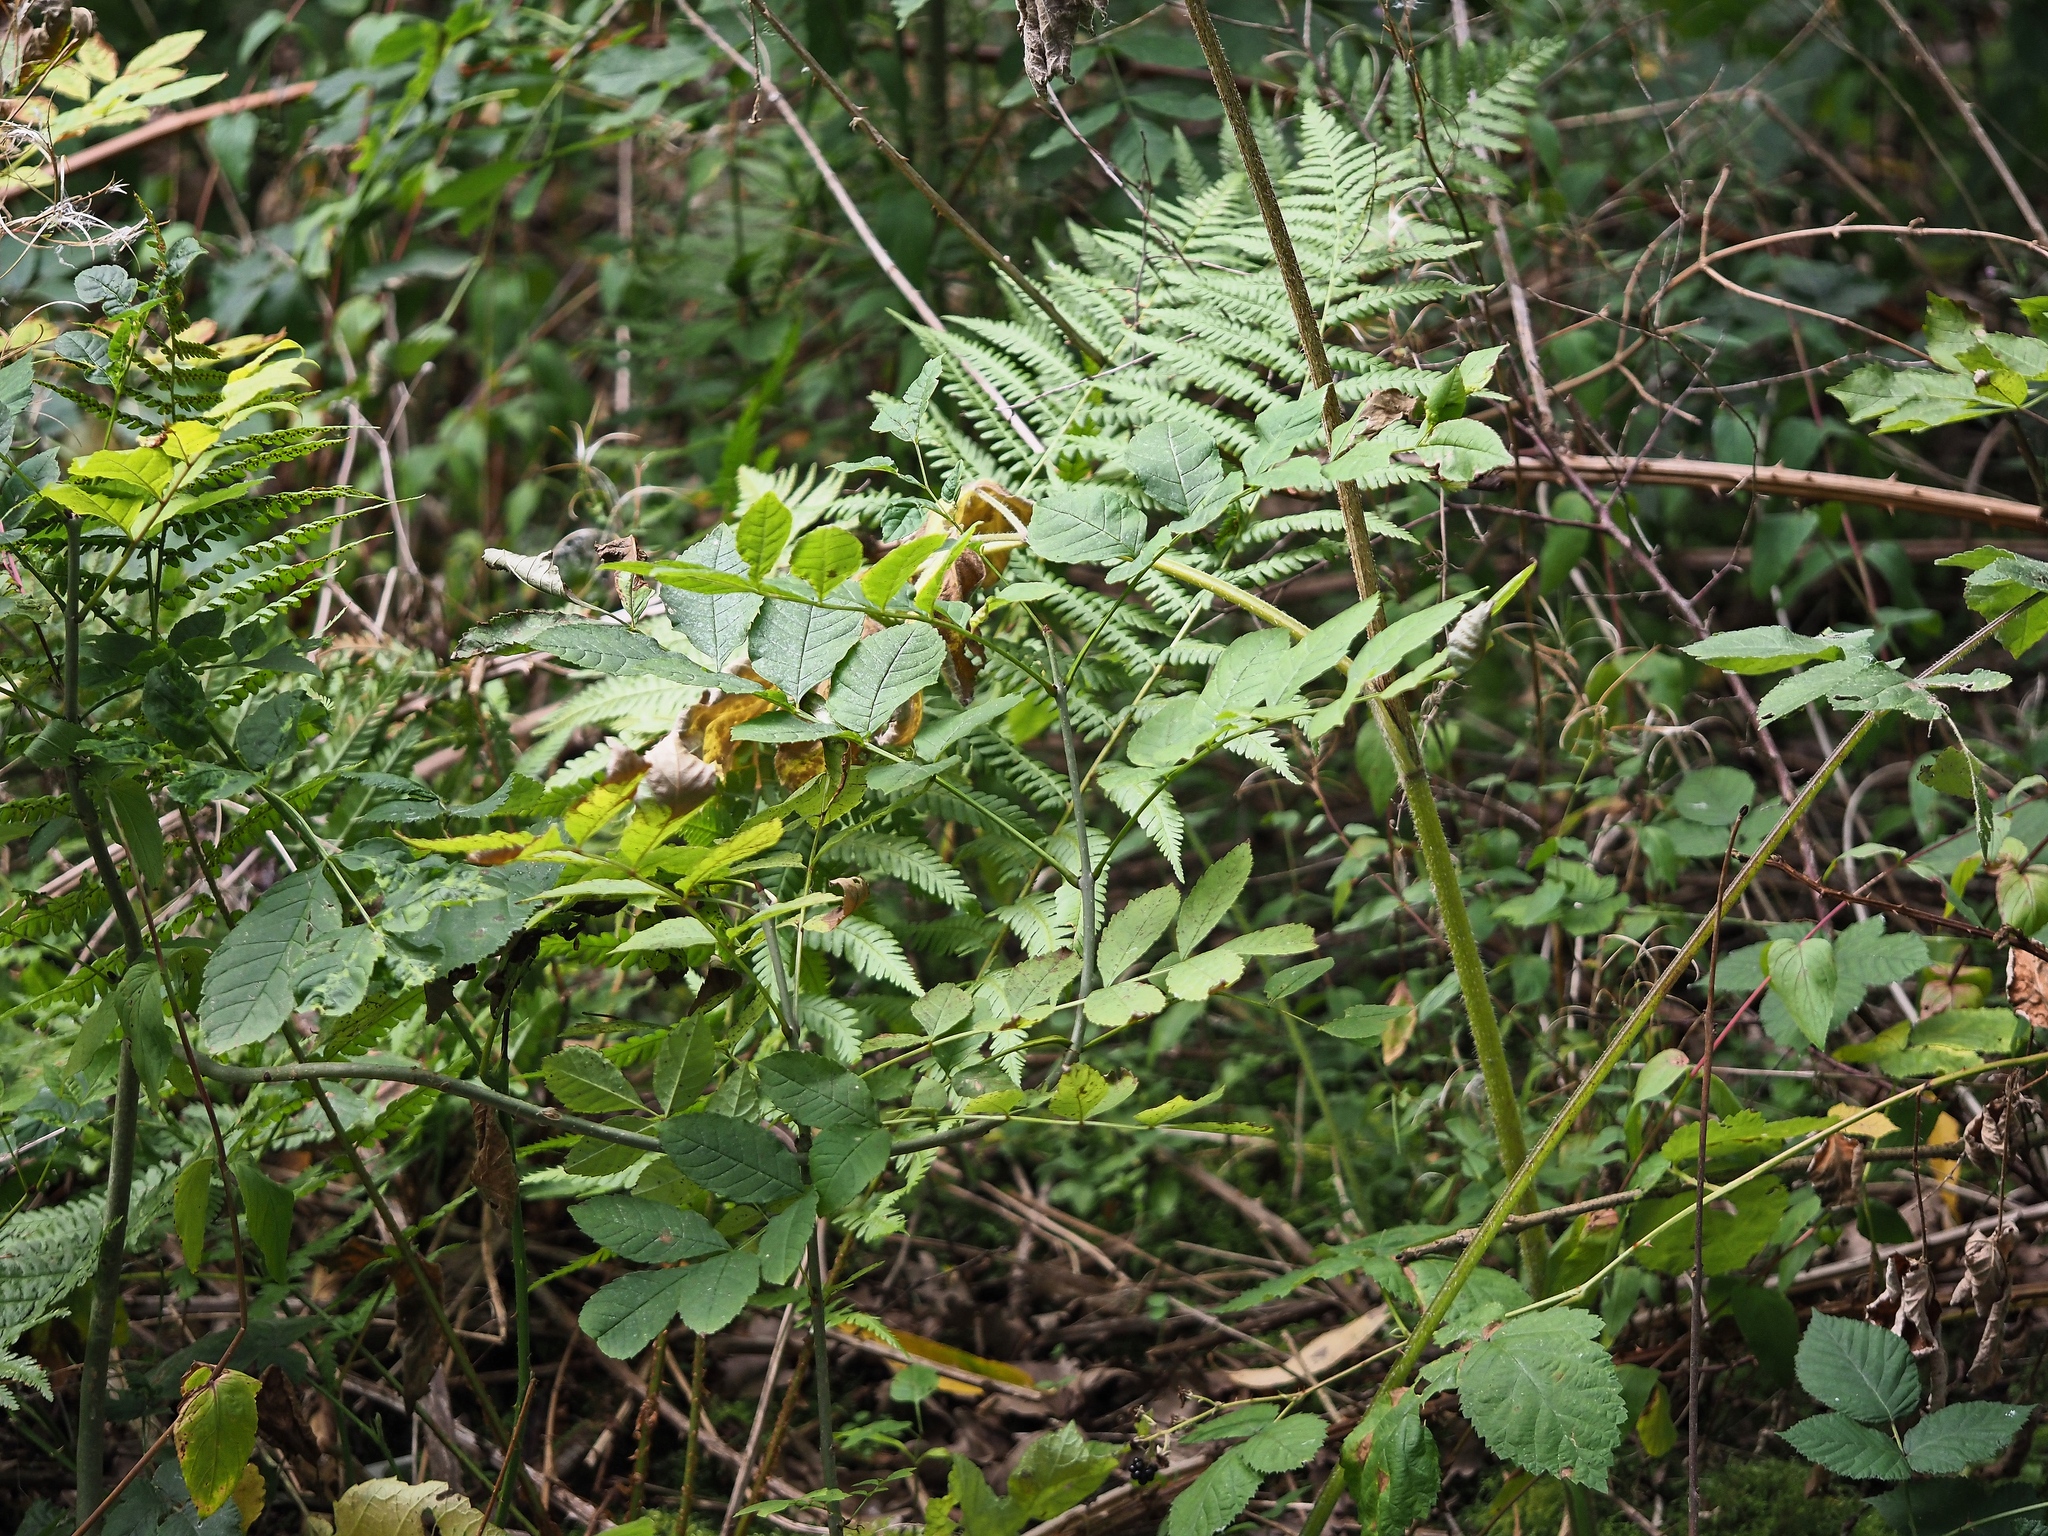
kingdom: Plantae
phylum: Tracheophyta
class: Polypodiopsida
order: Polypodiales
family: Dryopteridaceae
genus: Dryopteris
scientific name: Dryopteris filix-mas
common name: Male fern
